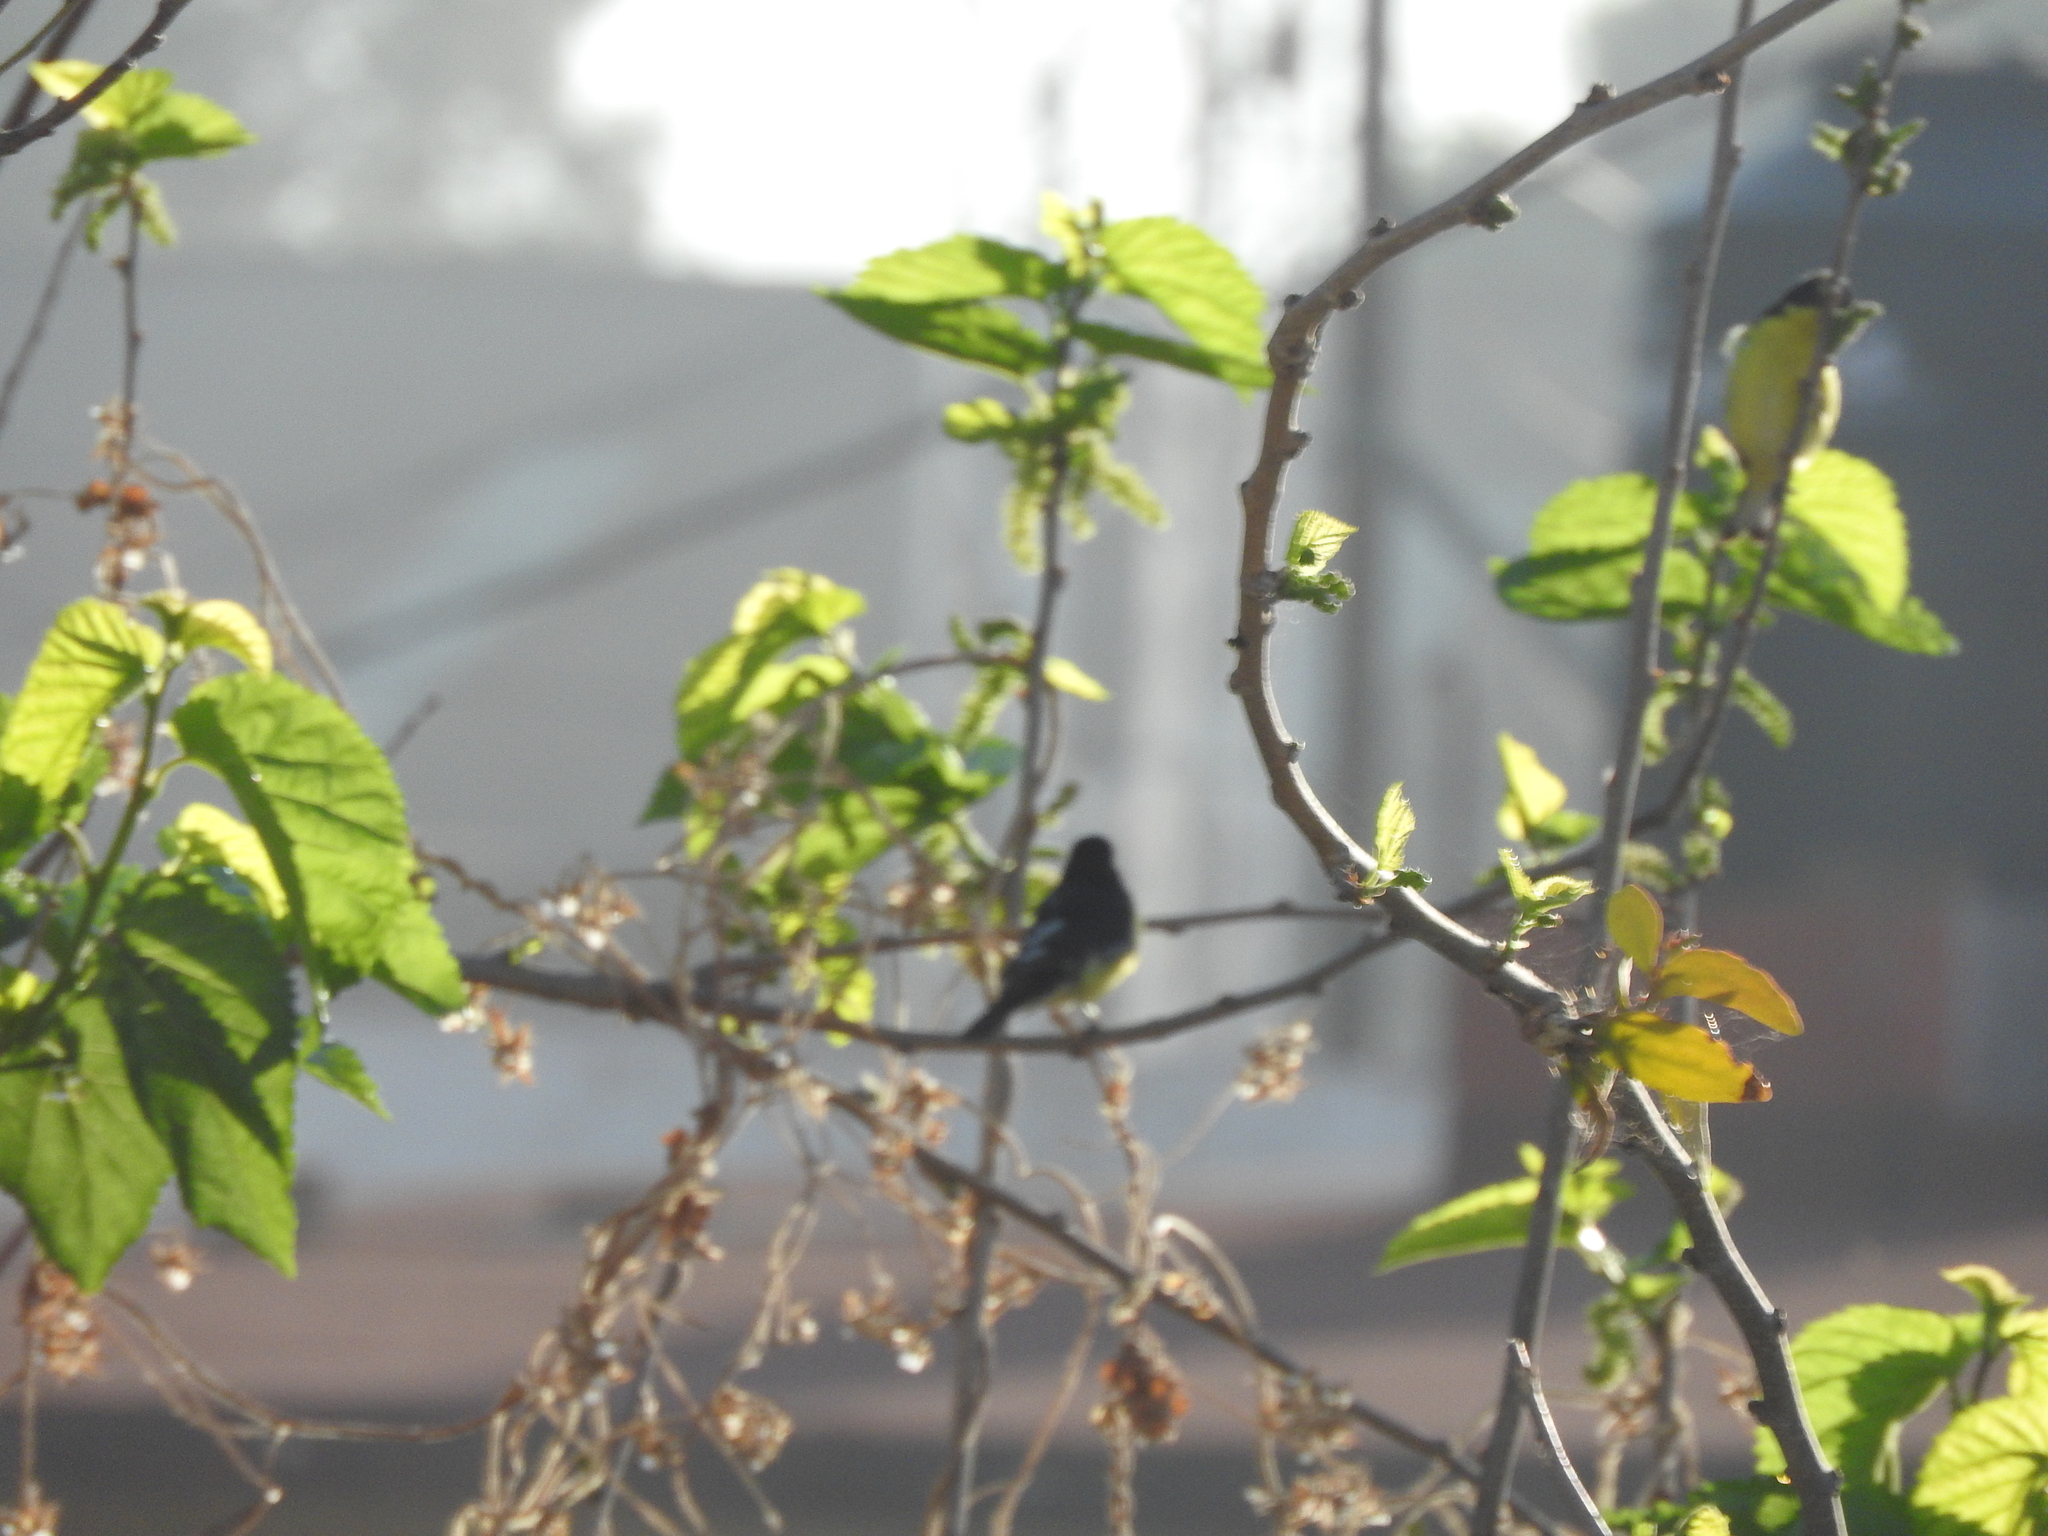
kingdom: Animalia
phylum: Chordata
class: Aves
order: Passeriformes
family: Fringillidae
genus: Spinus
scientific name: Spinus psaltria
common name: Lesser goldfinch
